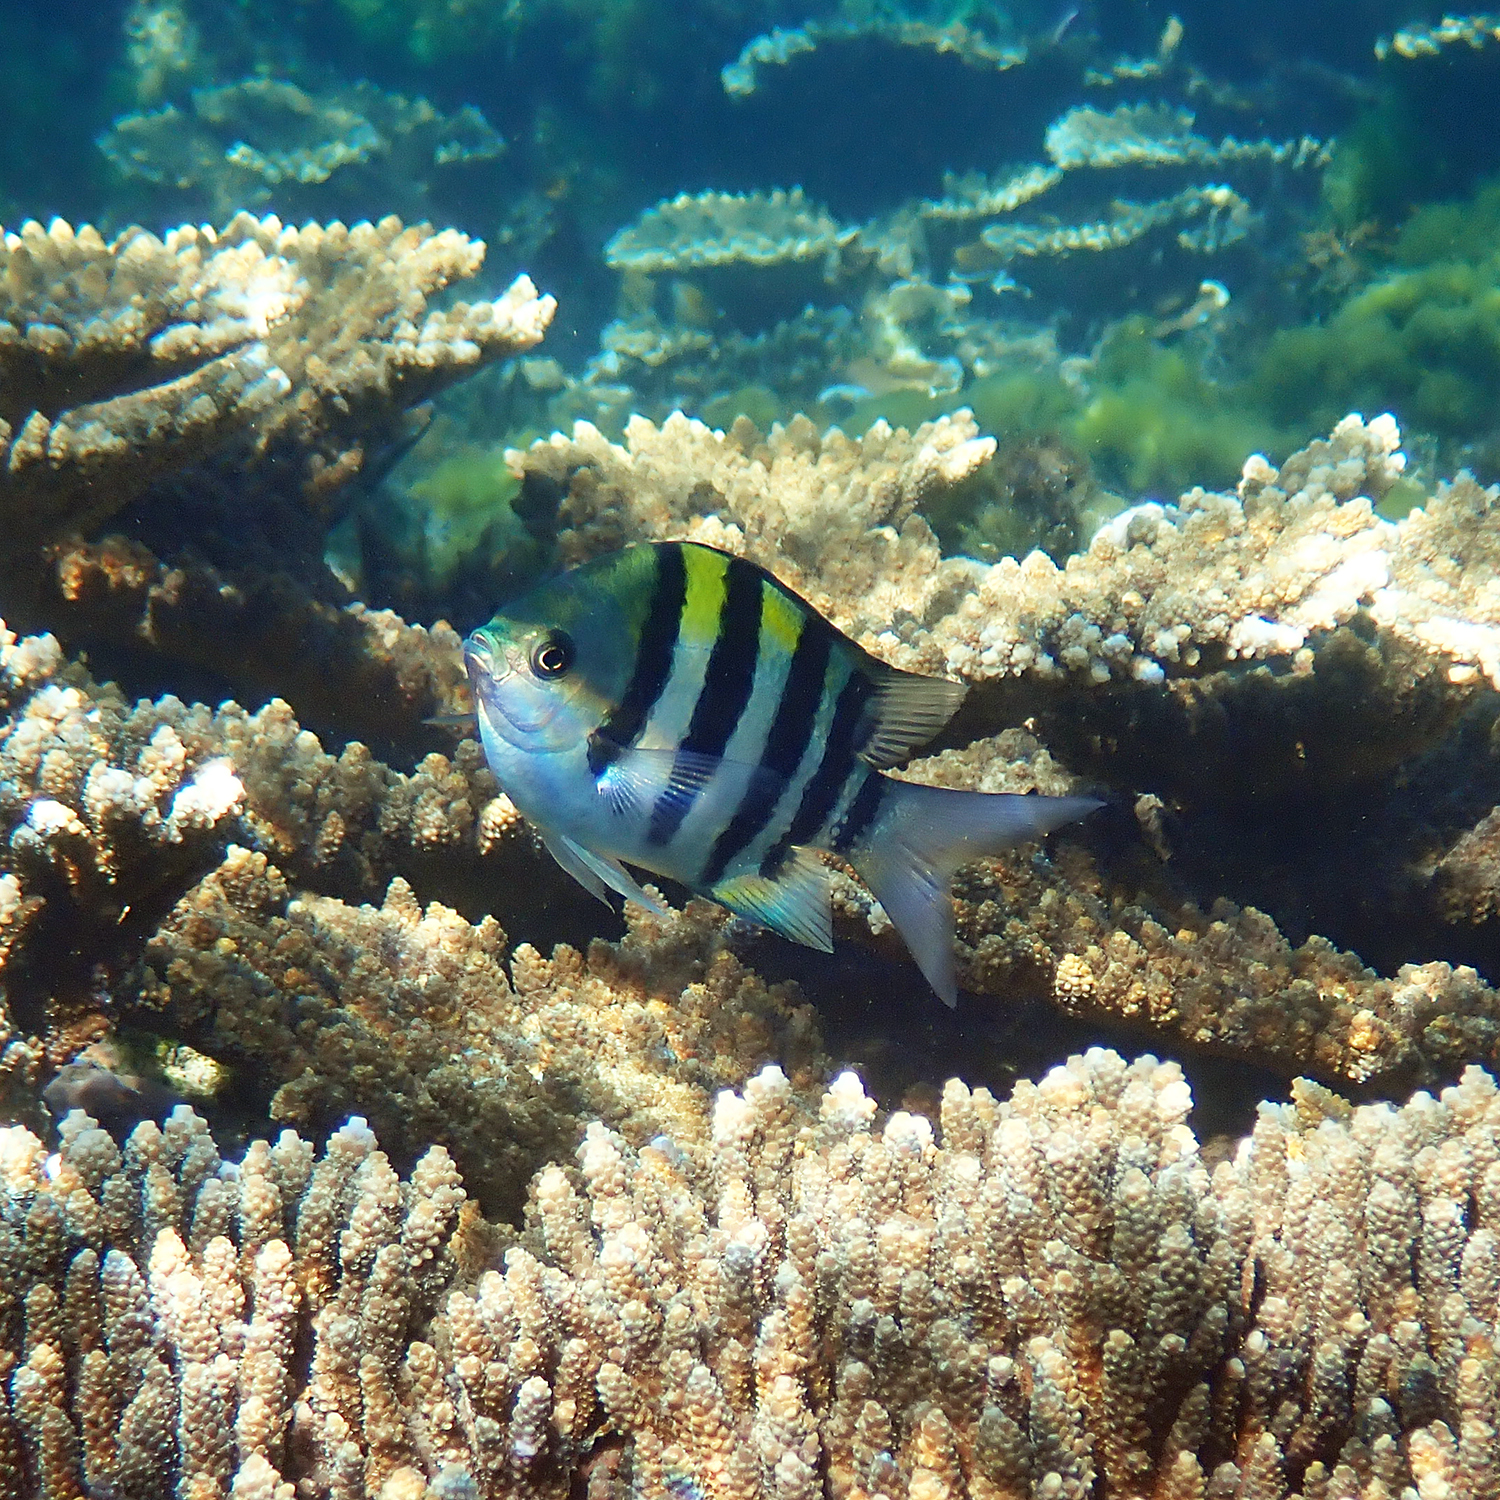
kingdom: Animalia
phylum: Chordata
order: Perciformes
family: Pomacentridae
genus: Abudefduf
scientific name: Abudefduf vaigiensis
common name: Indo-pacific sergeant
